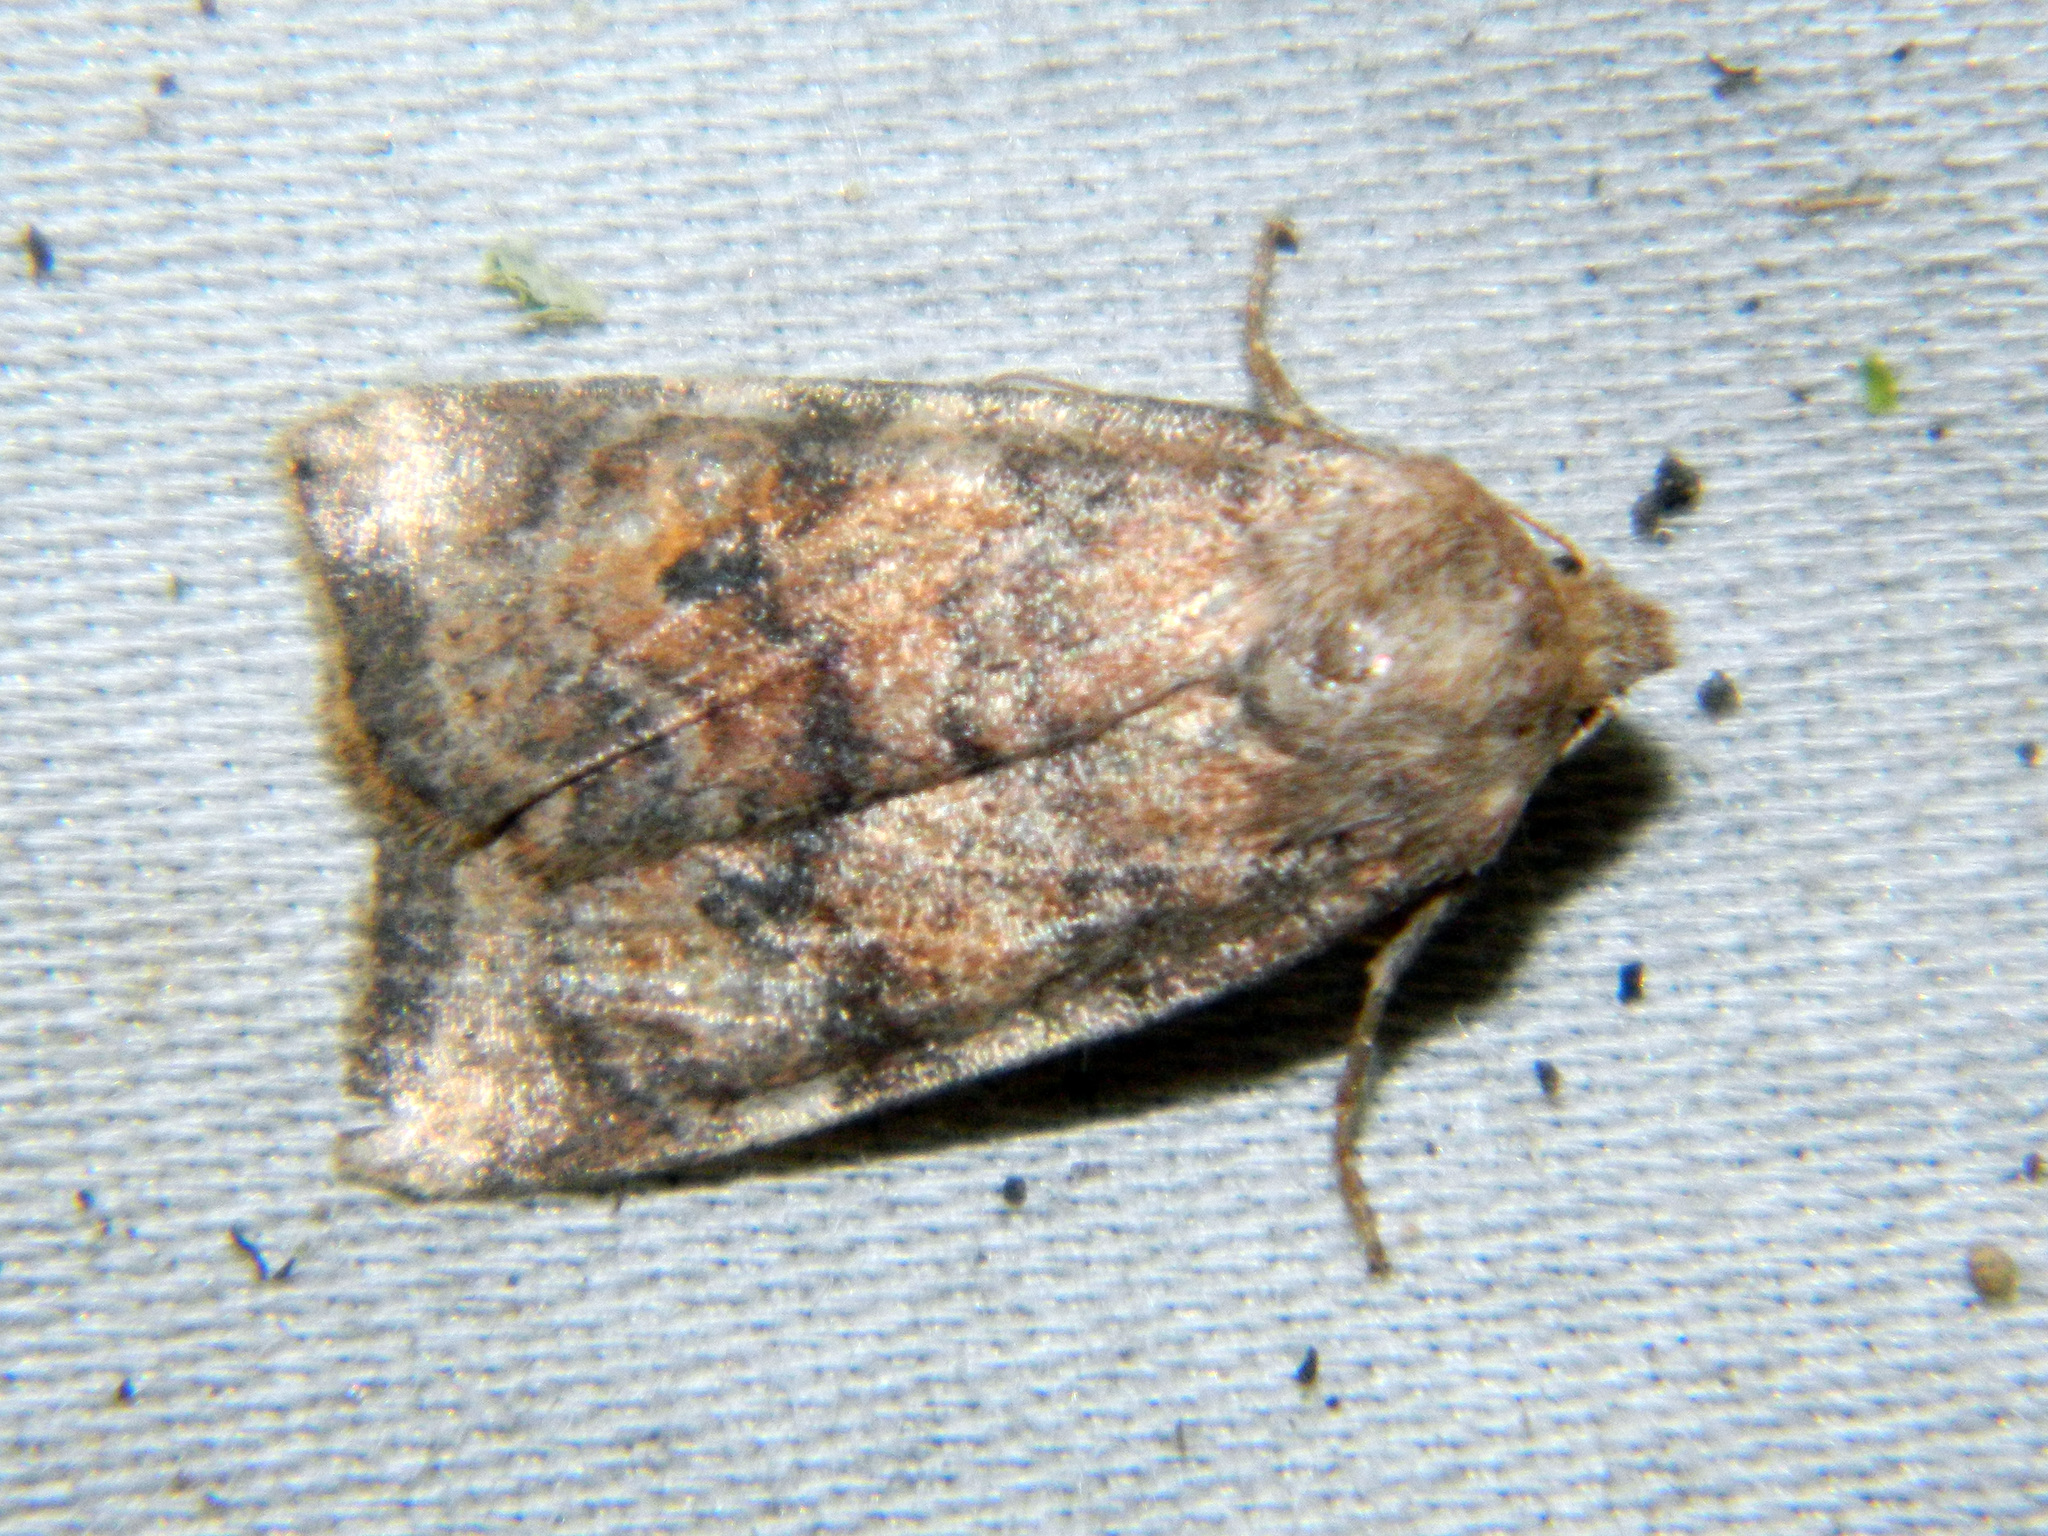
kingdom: Animalia
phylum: Arthropoda
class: Insecta
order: Lepidoptera
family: Noctuidae
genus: Anathix
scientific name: Anathix puta
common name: Puta sallow
